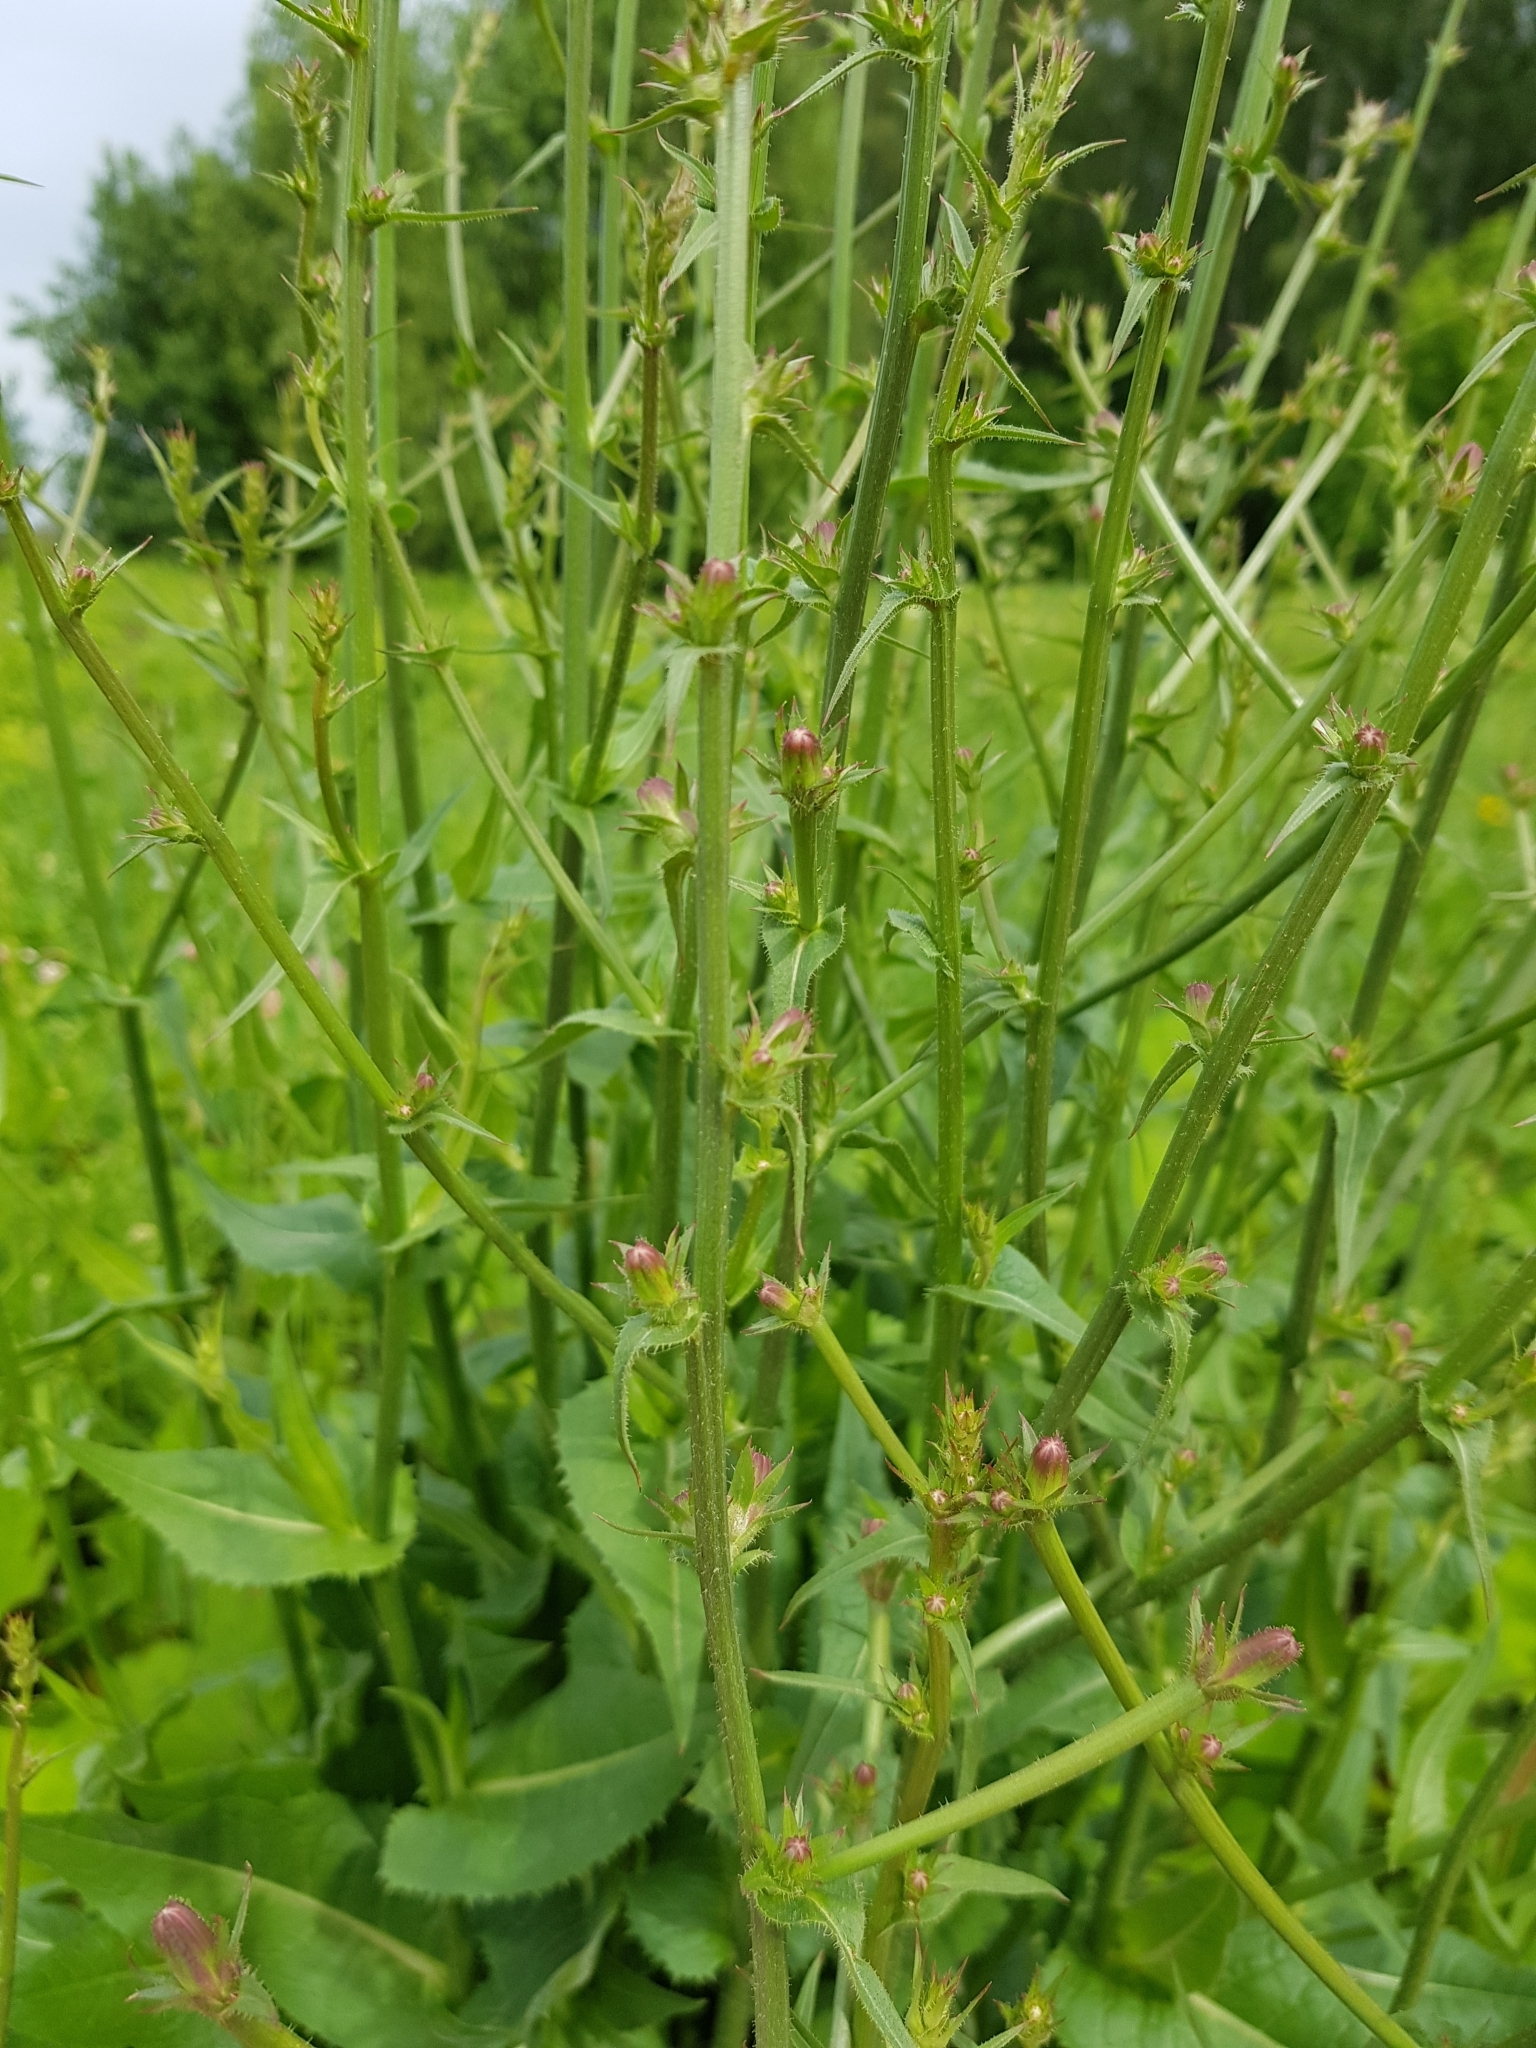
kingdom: Plantae
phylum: Tracheophyta
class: Magnoliopsida
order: Asterales
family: Asteraceae
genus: Cichorium
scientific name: Cichorium intybus
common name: Chicory
